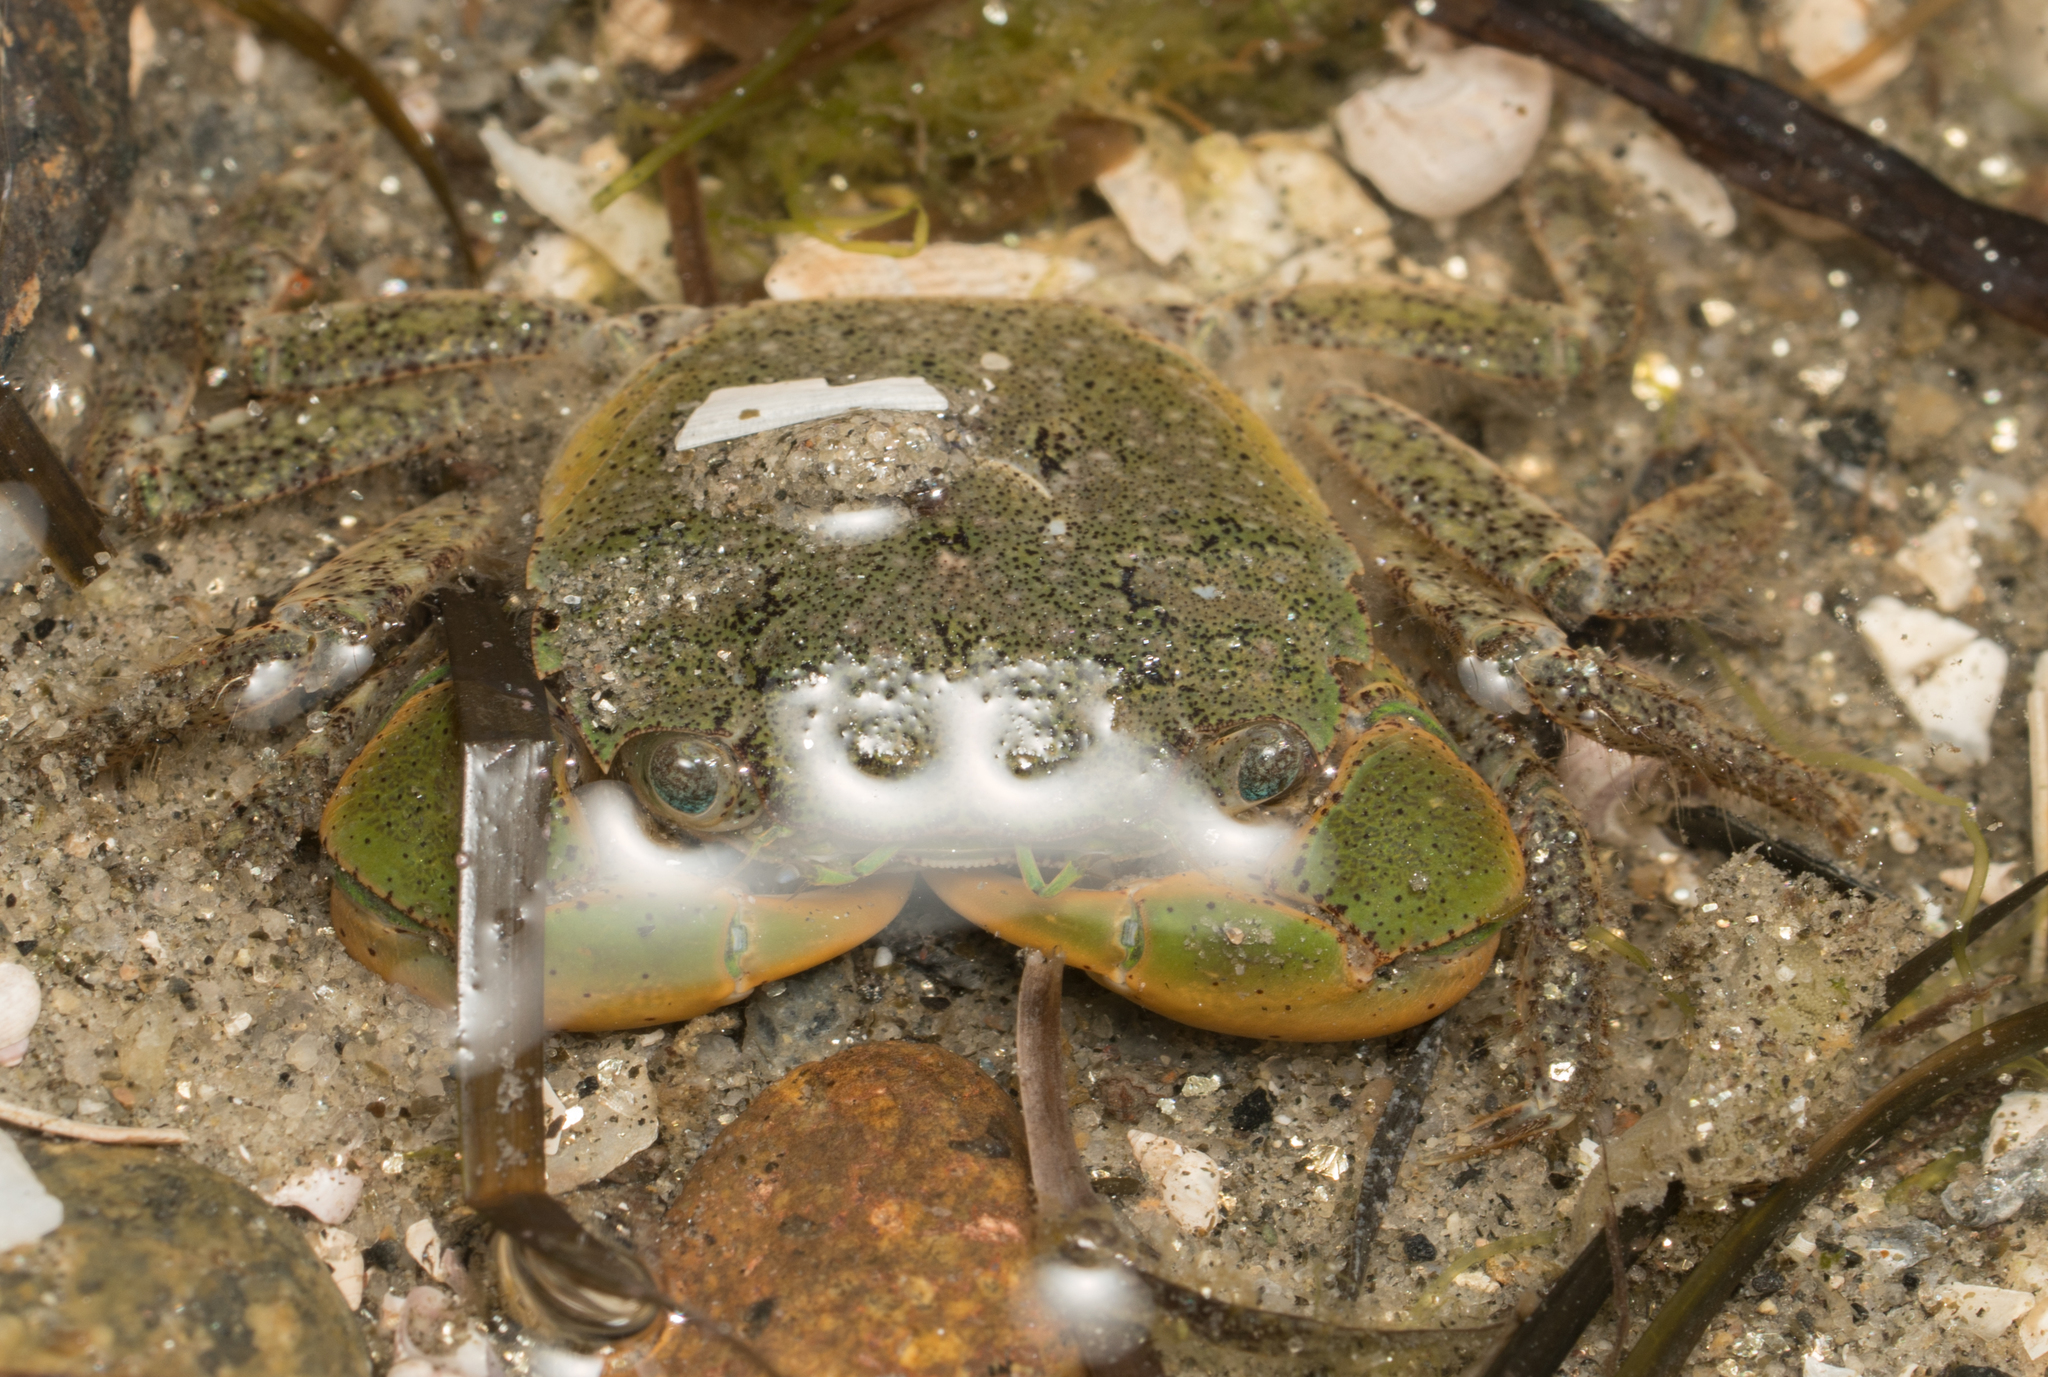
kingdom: Animalia
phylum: Arthropoda
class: Malacostraca
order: Decapoda
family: Varunidae
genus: Hemigrapsus
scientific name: Hemigrapsus oregonensis
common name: Yellow shore crab
